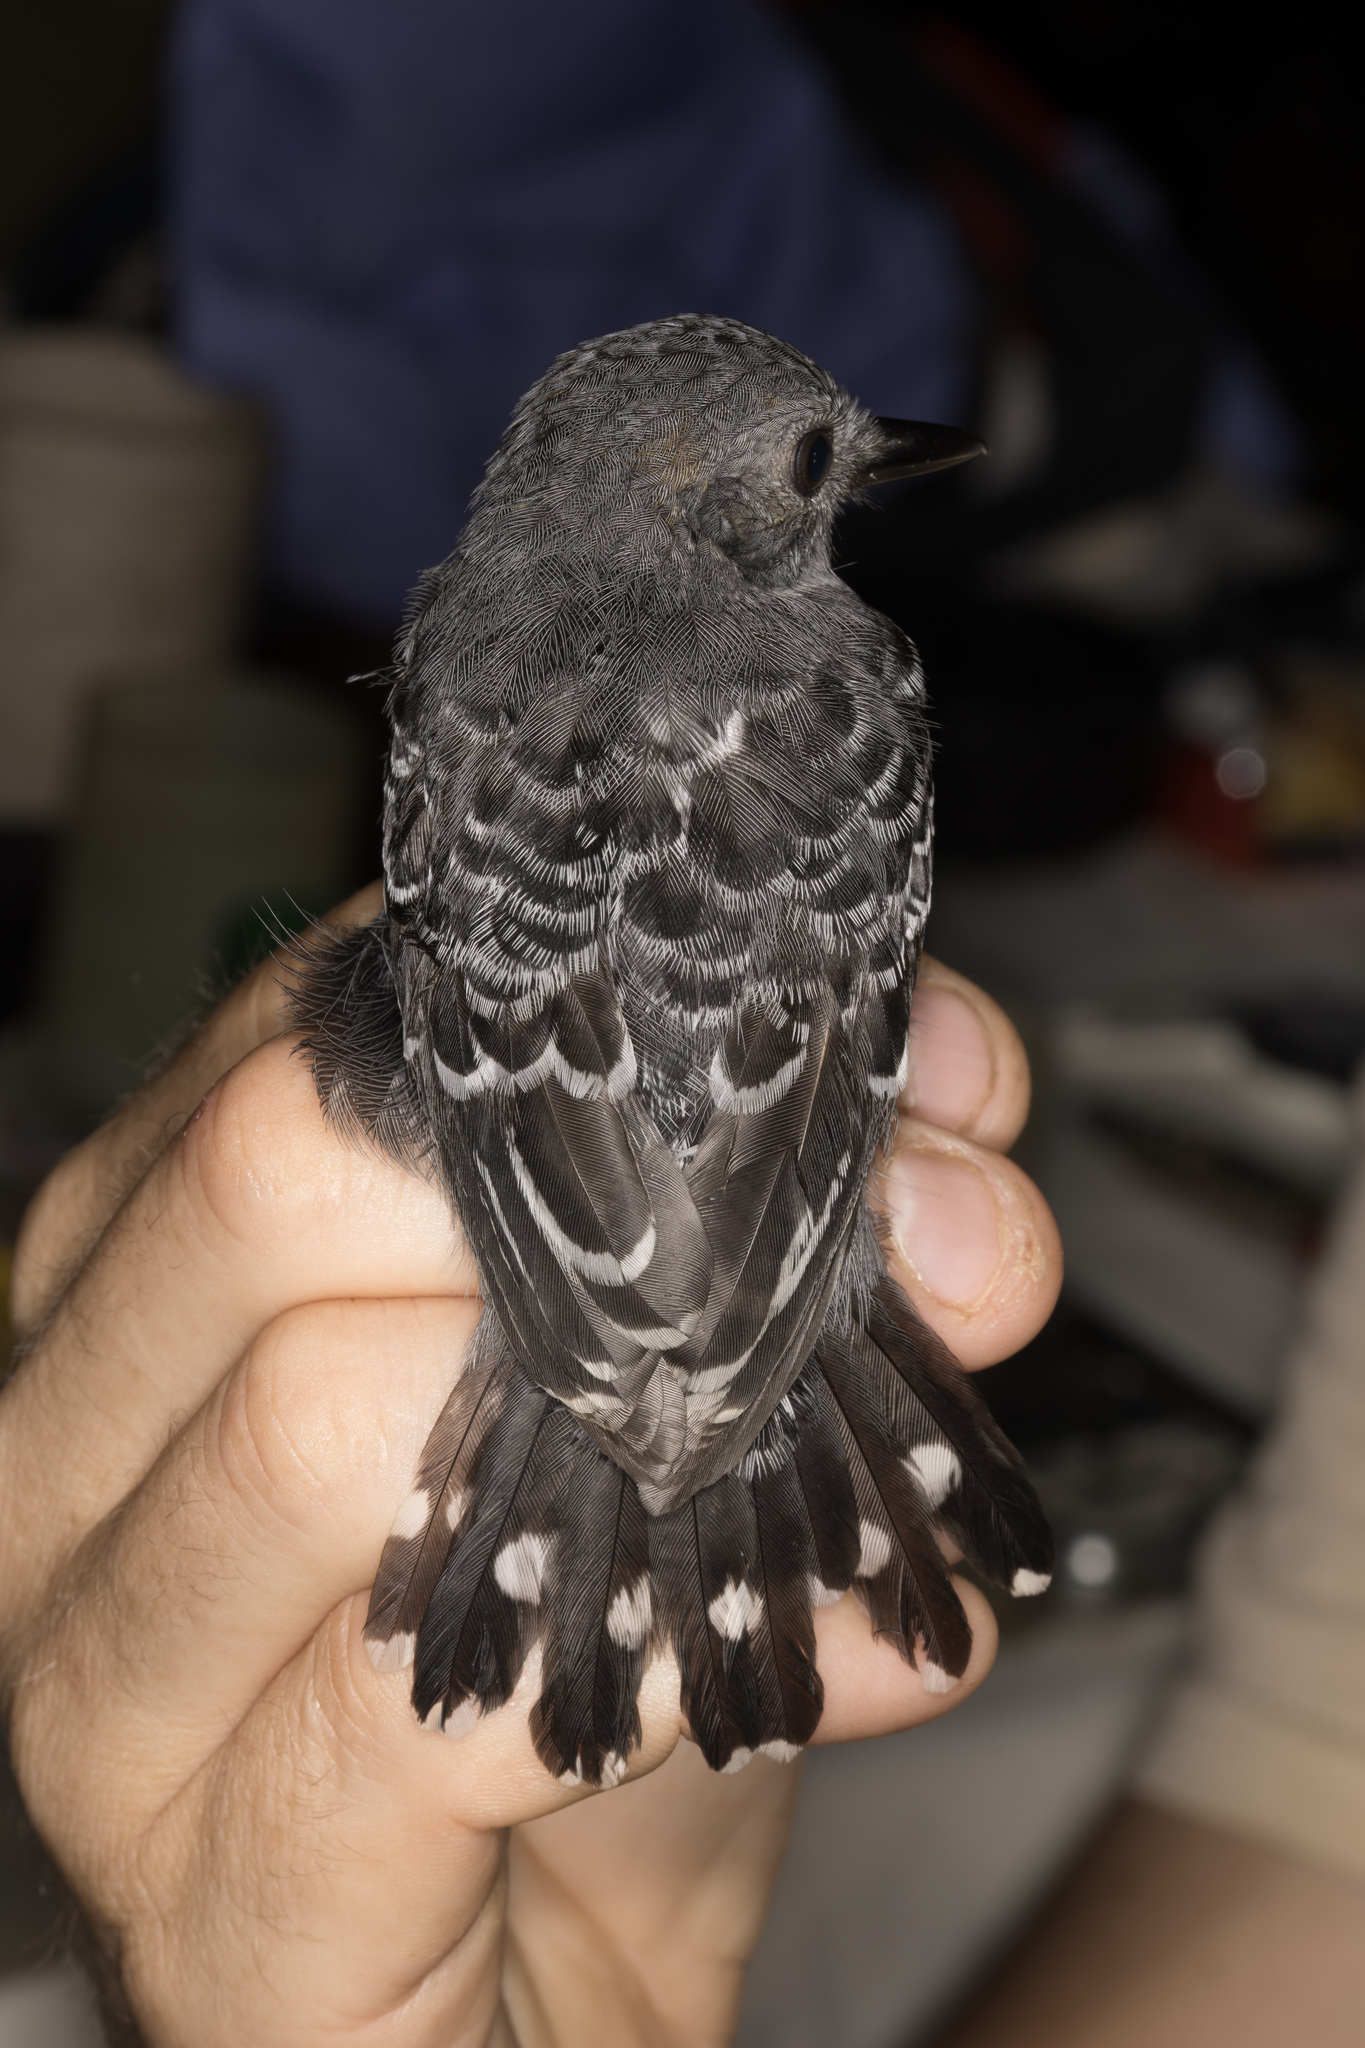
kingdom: Animalia
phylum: Chordata
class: Aves
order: Passeriformes
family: Thamnophilidae
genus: Willisornis
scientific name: Willisornis poecilinotus
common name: Common scale-backed antbird
